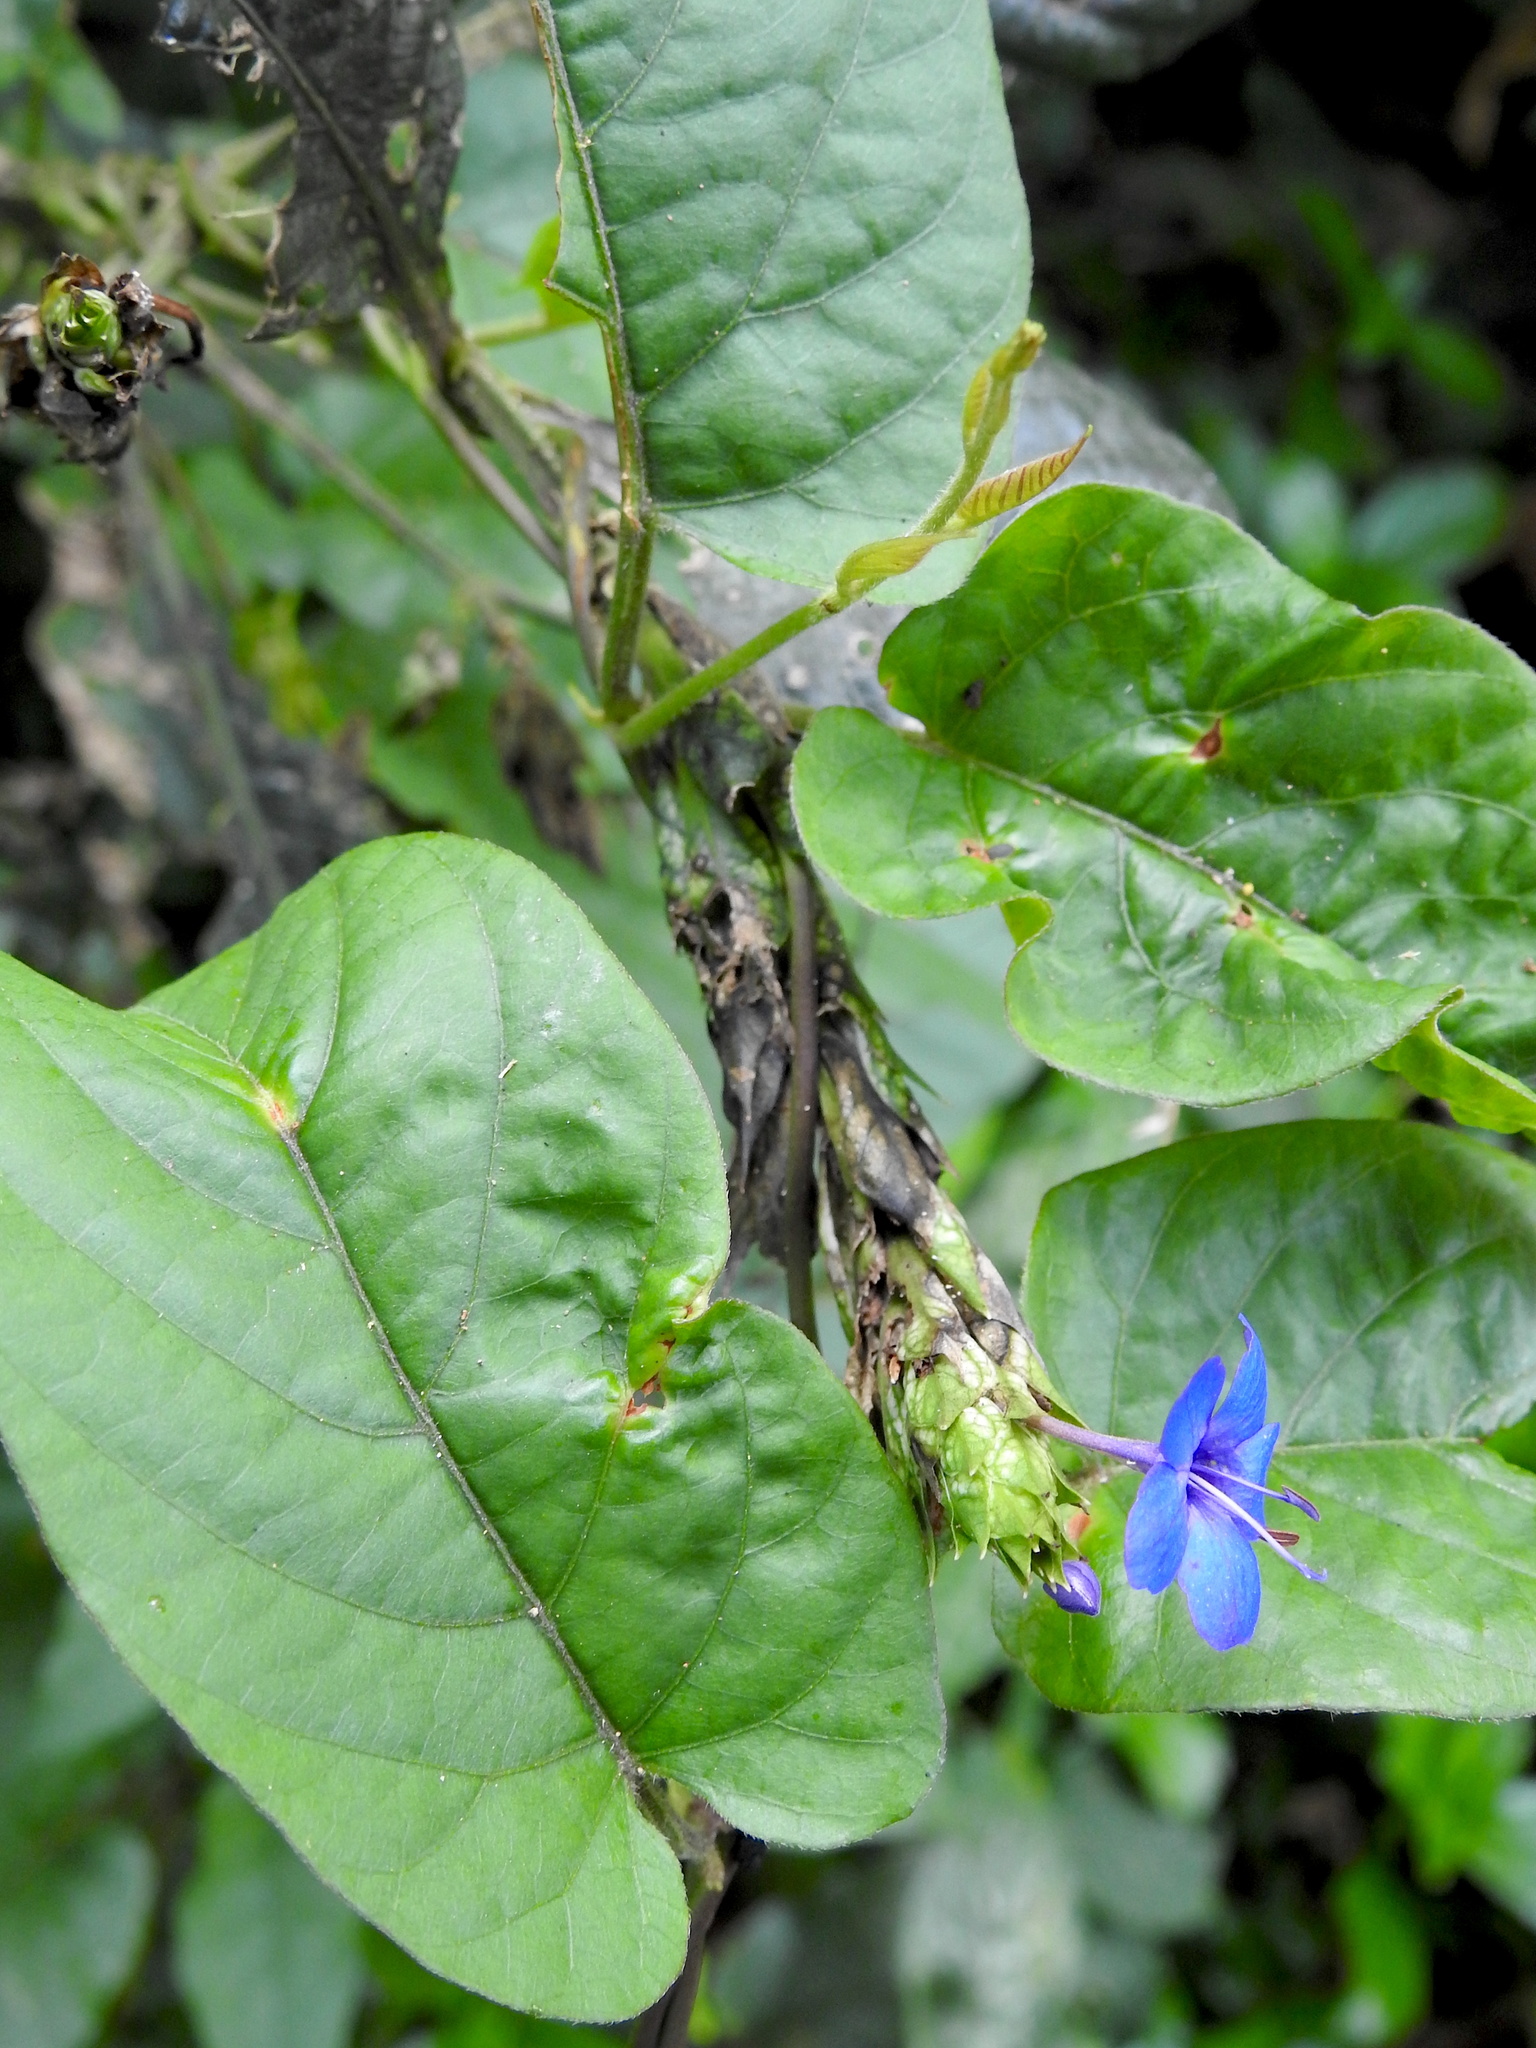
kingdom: Plantae
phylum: Tracheophyta
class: Magnoliopsida
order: Lamiales
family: Acanthaceae
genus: Eranthemum
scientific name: Eranthemum pulchellum
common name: Blue-sage
